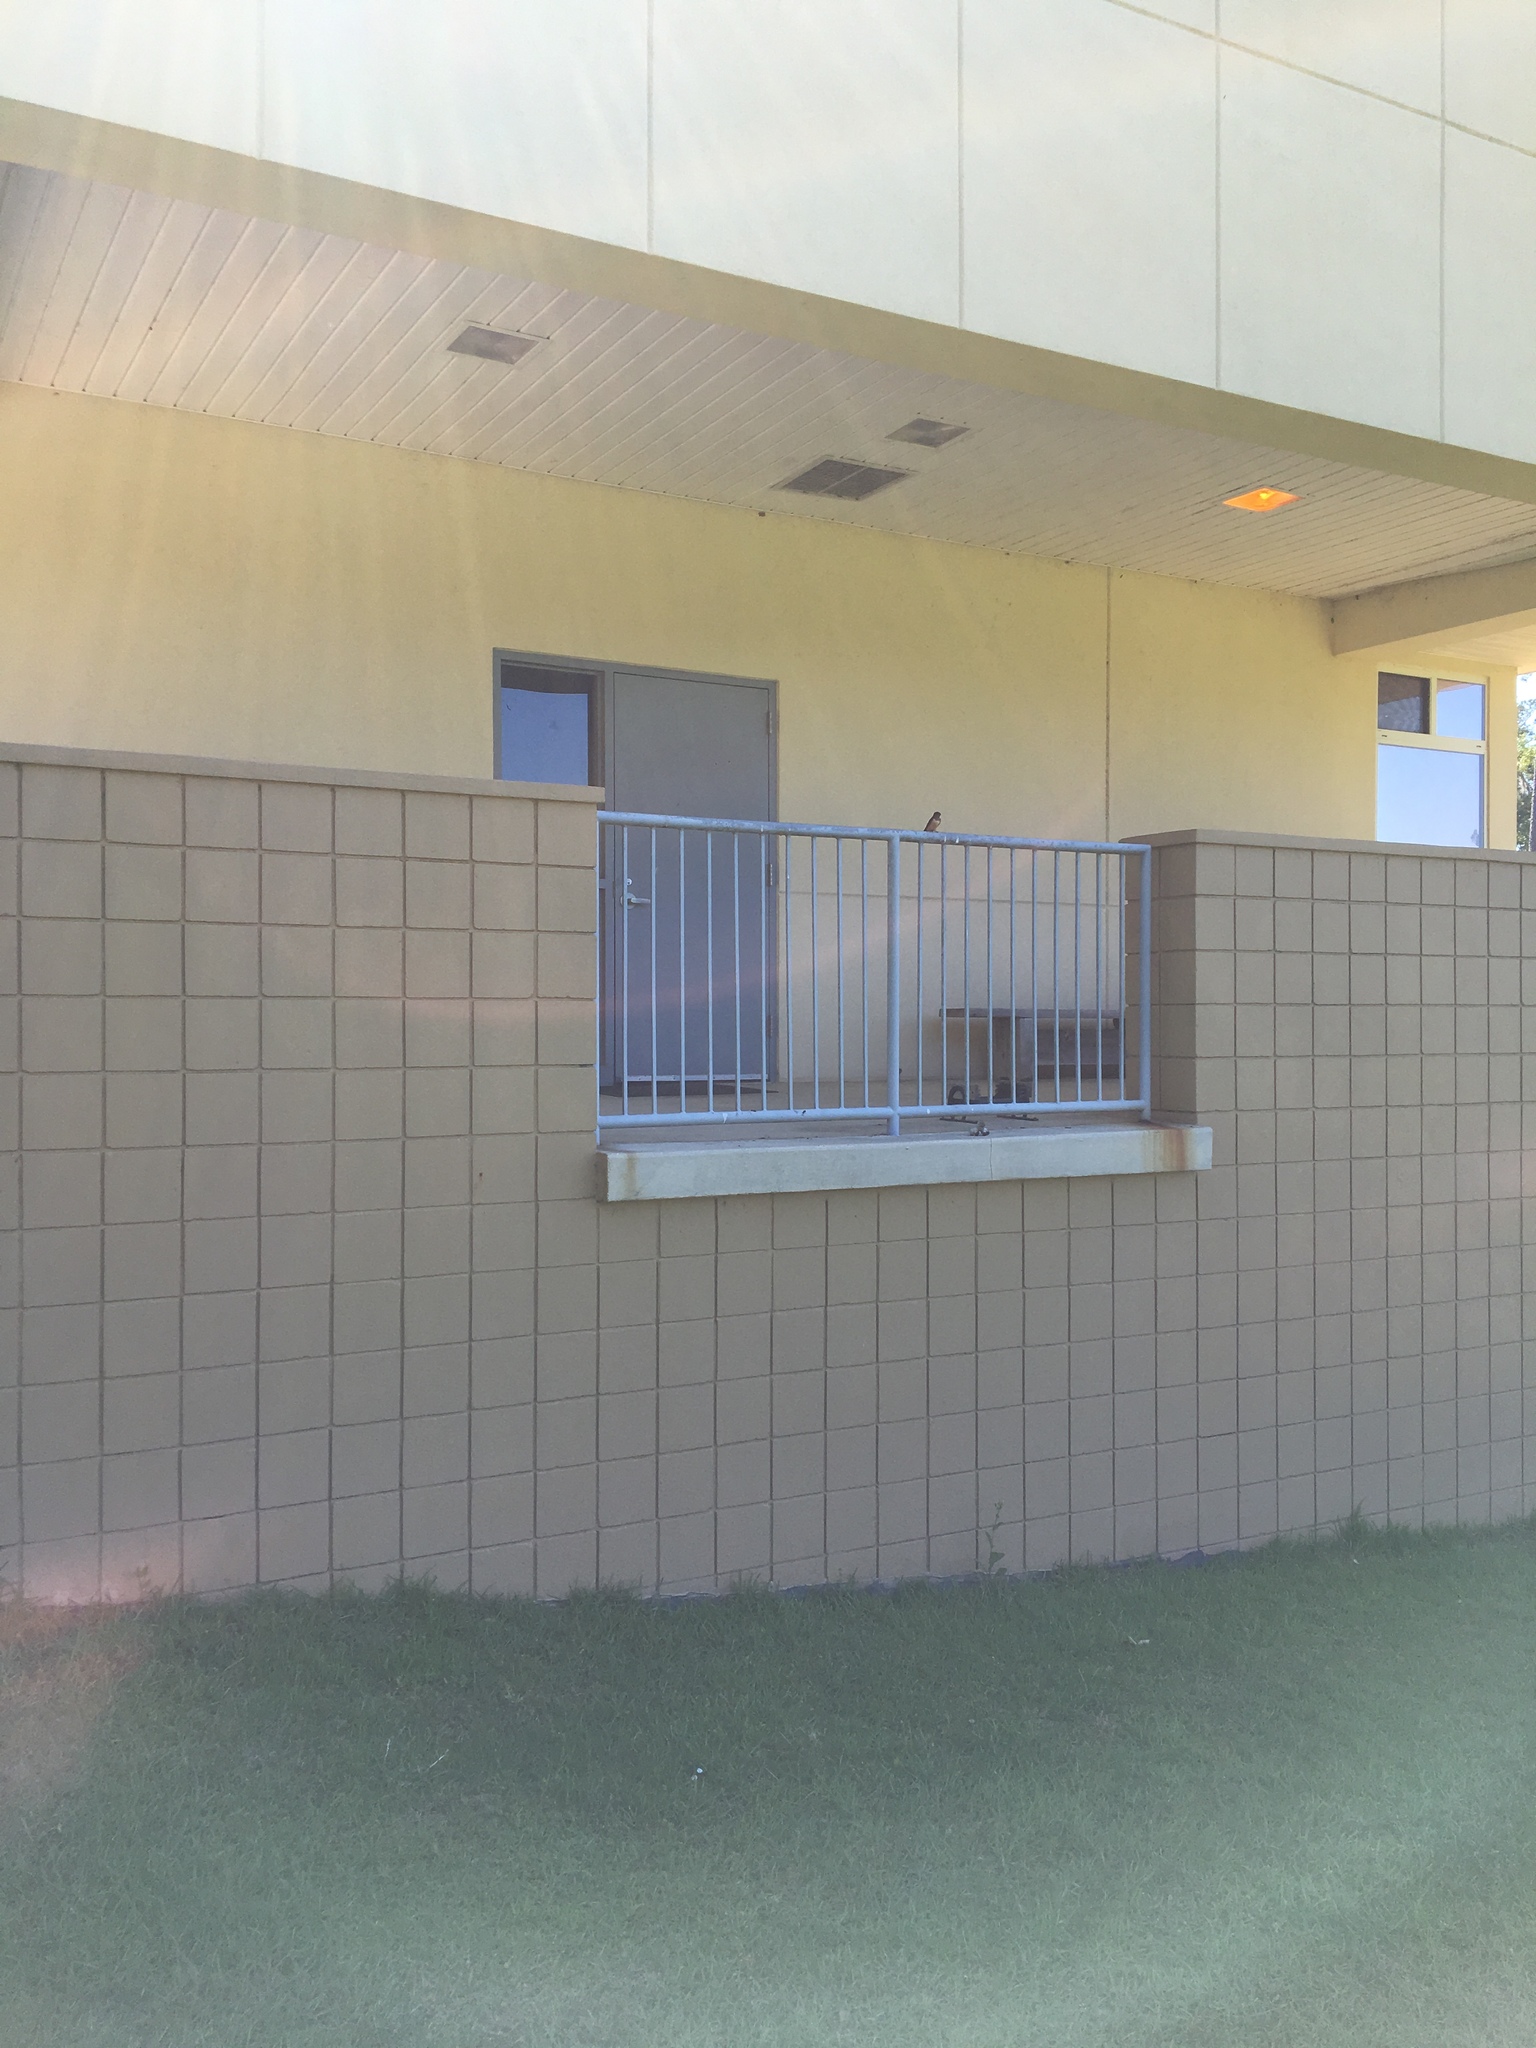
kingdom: Animalia
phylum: Chordata
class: Aves
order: Passeriformes
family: Hirundinidae
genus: Hirundo
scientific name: Hirundo rustica
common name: Barn swallow
